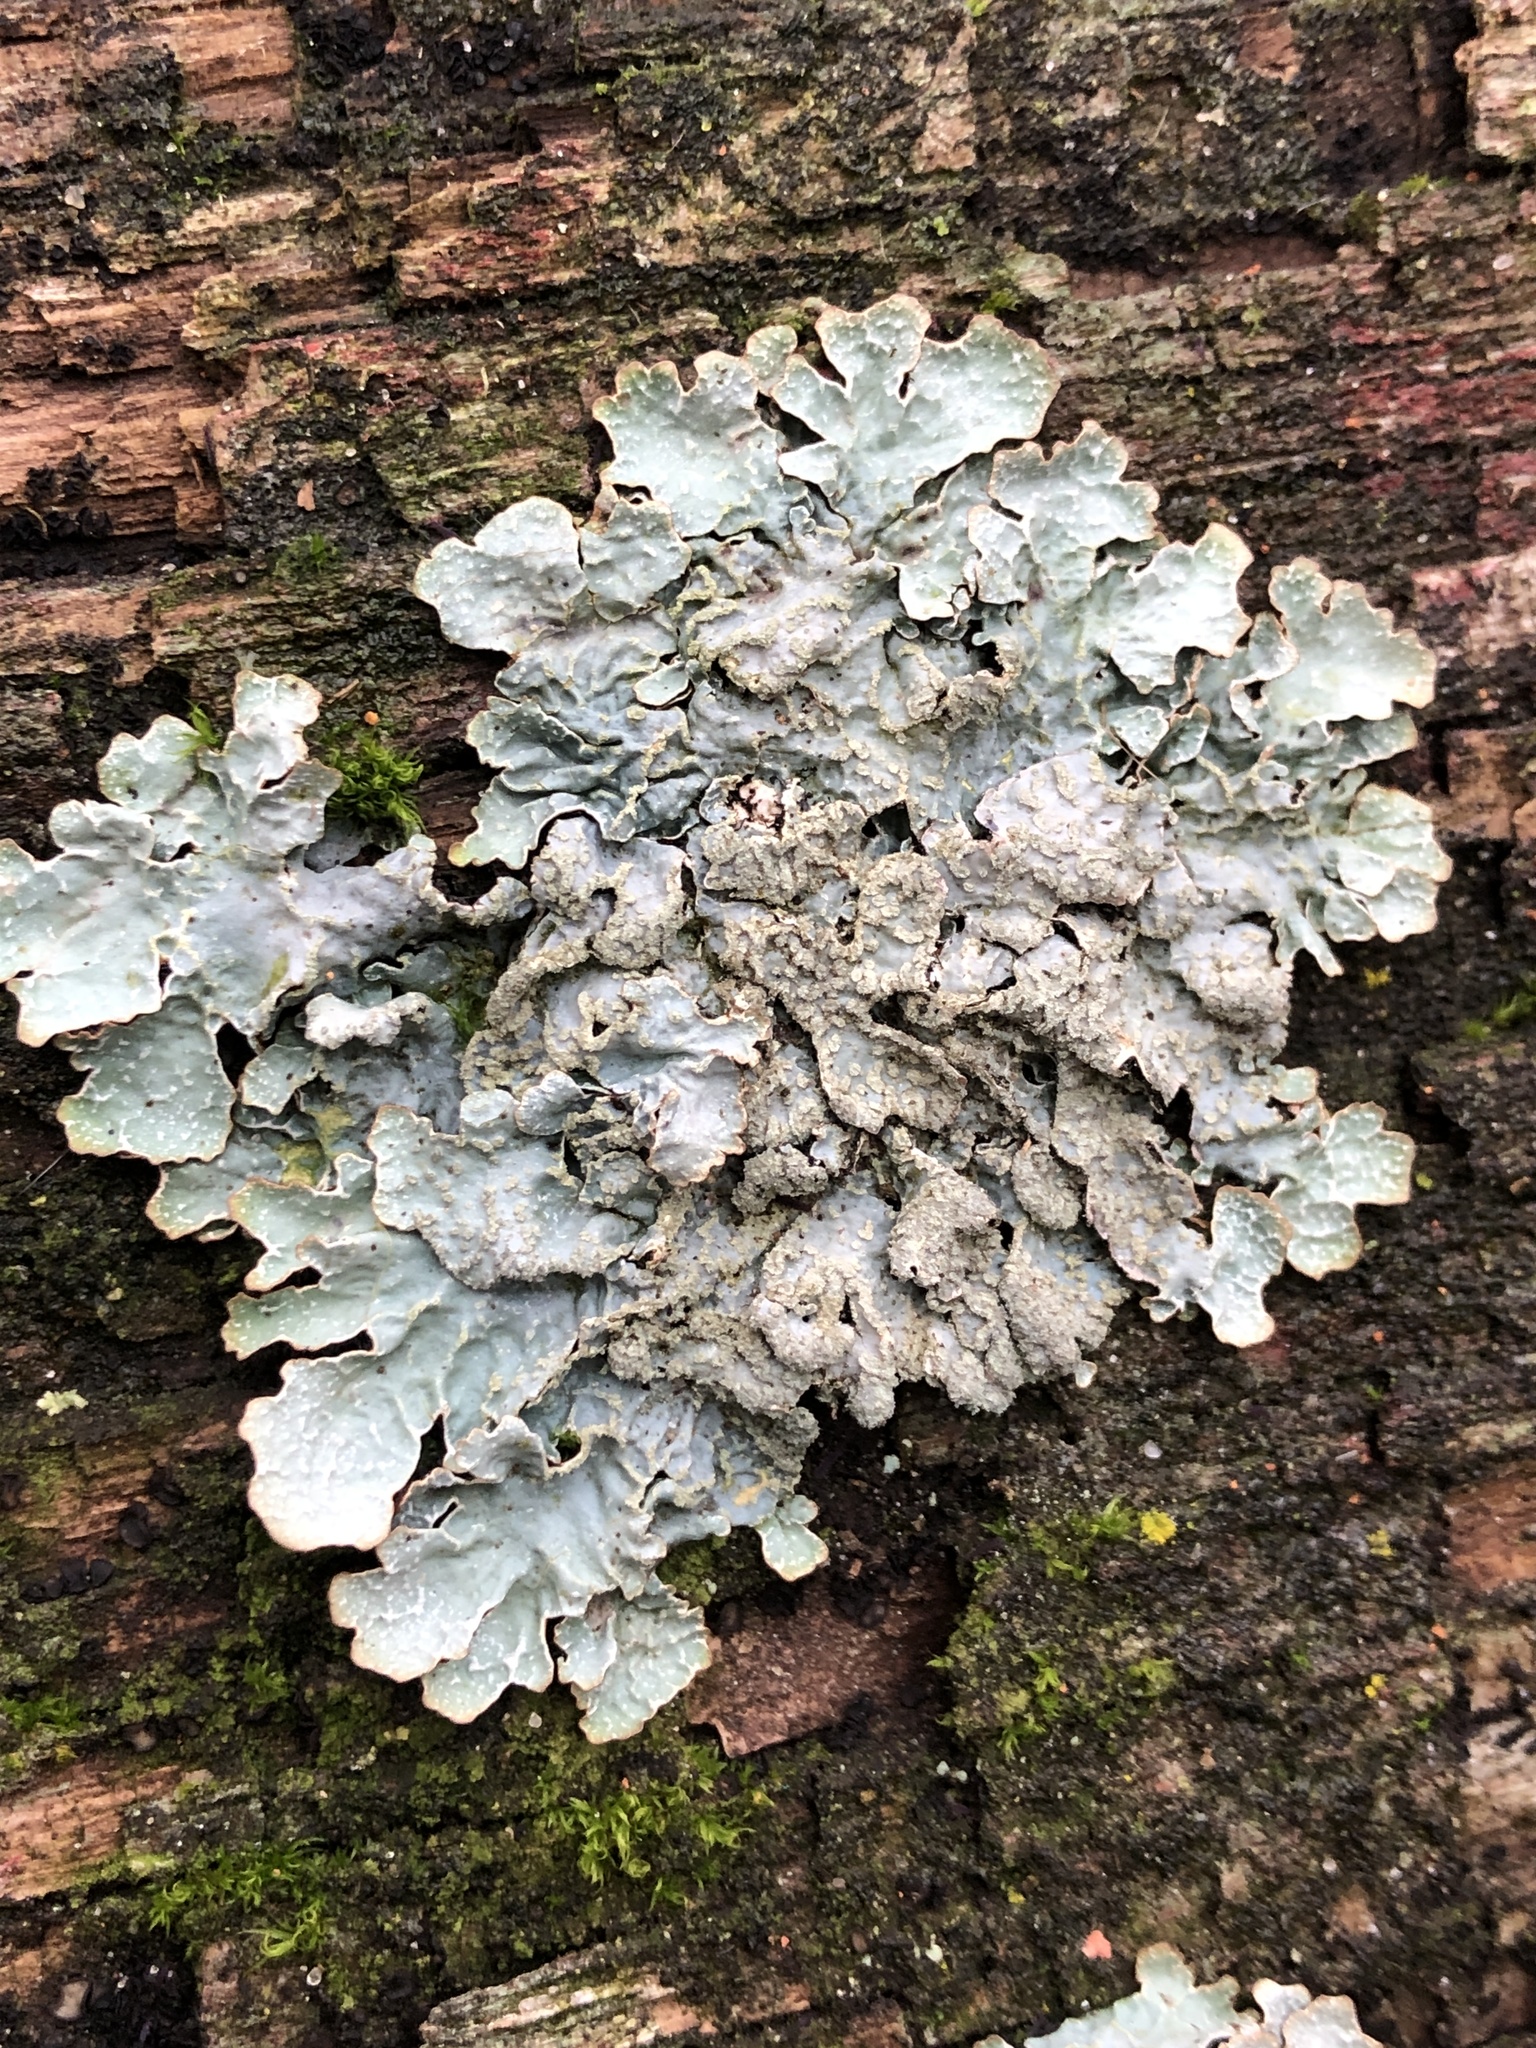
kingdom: Fungi
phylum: Ascomycota
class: Lecanoromycetes
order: Lecanorales
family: Parmeliaceae
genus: Parmelia
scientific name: Parmelia sulcata
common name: Netted shield lichen
